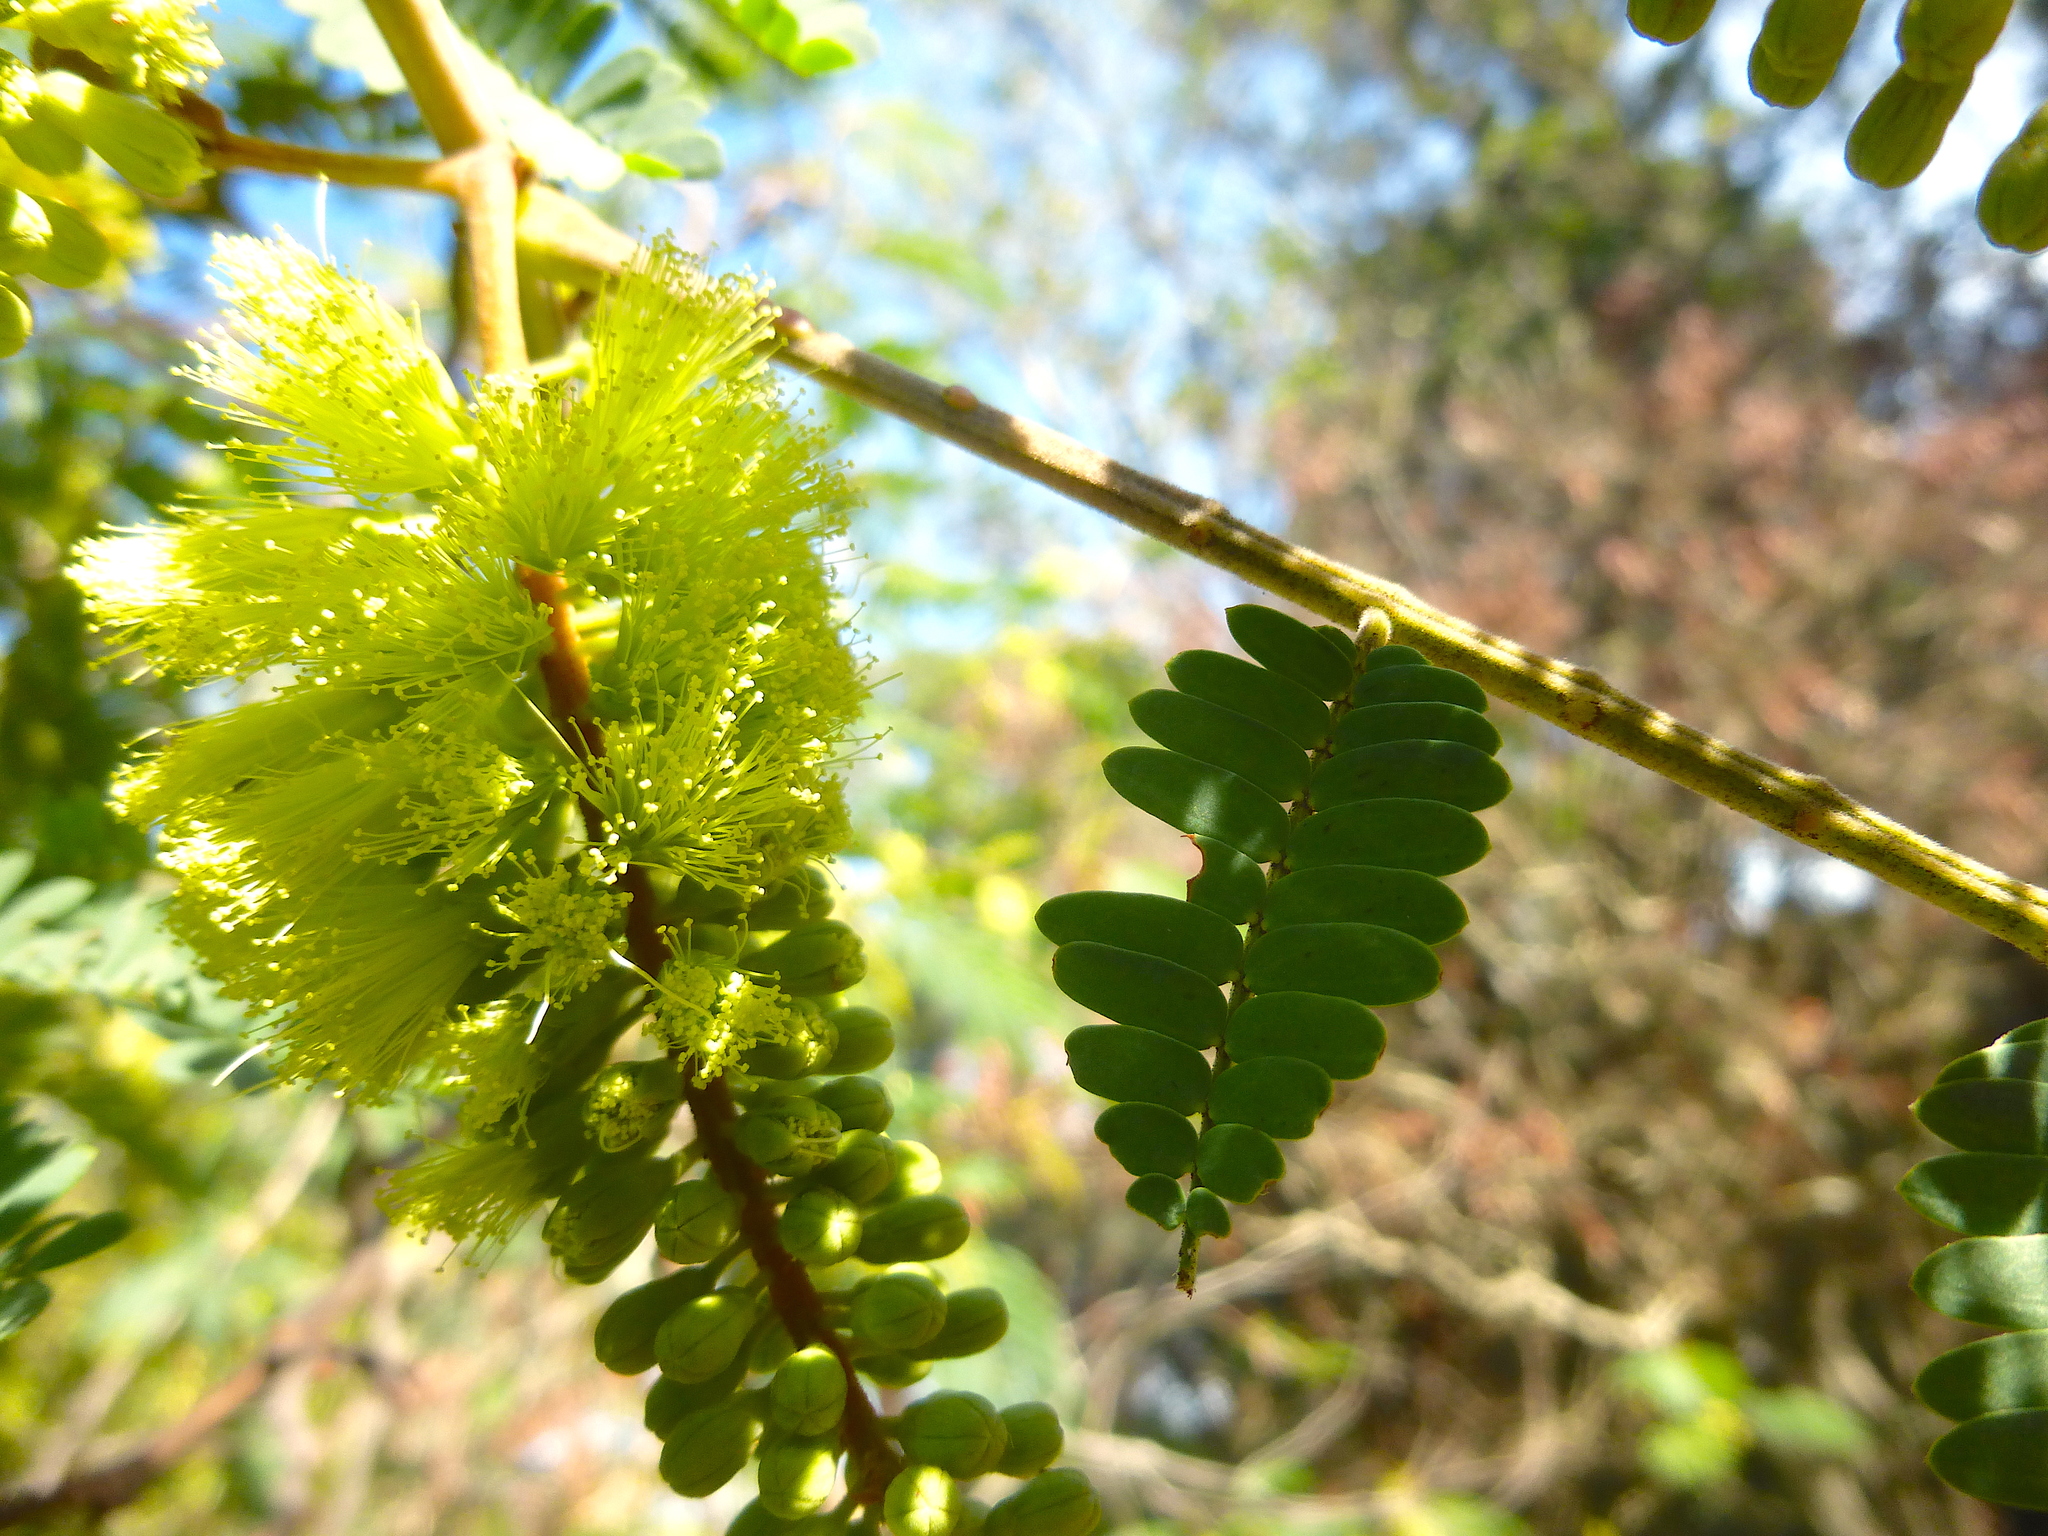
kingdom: Plantae
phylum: Tracheophyta
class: Magnoliopsida
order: Fabales
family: Fabaceae
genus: Paraserianthes
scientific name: Paraserianthes lophantha
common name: Plume albizia
